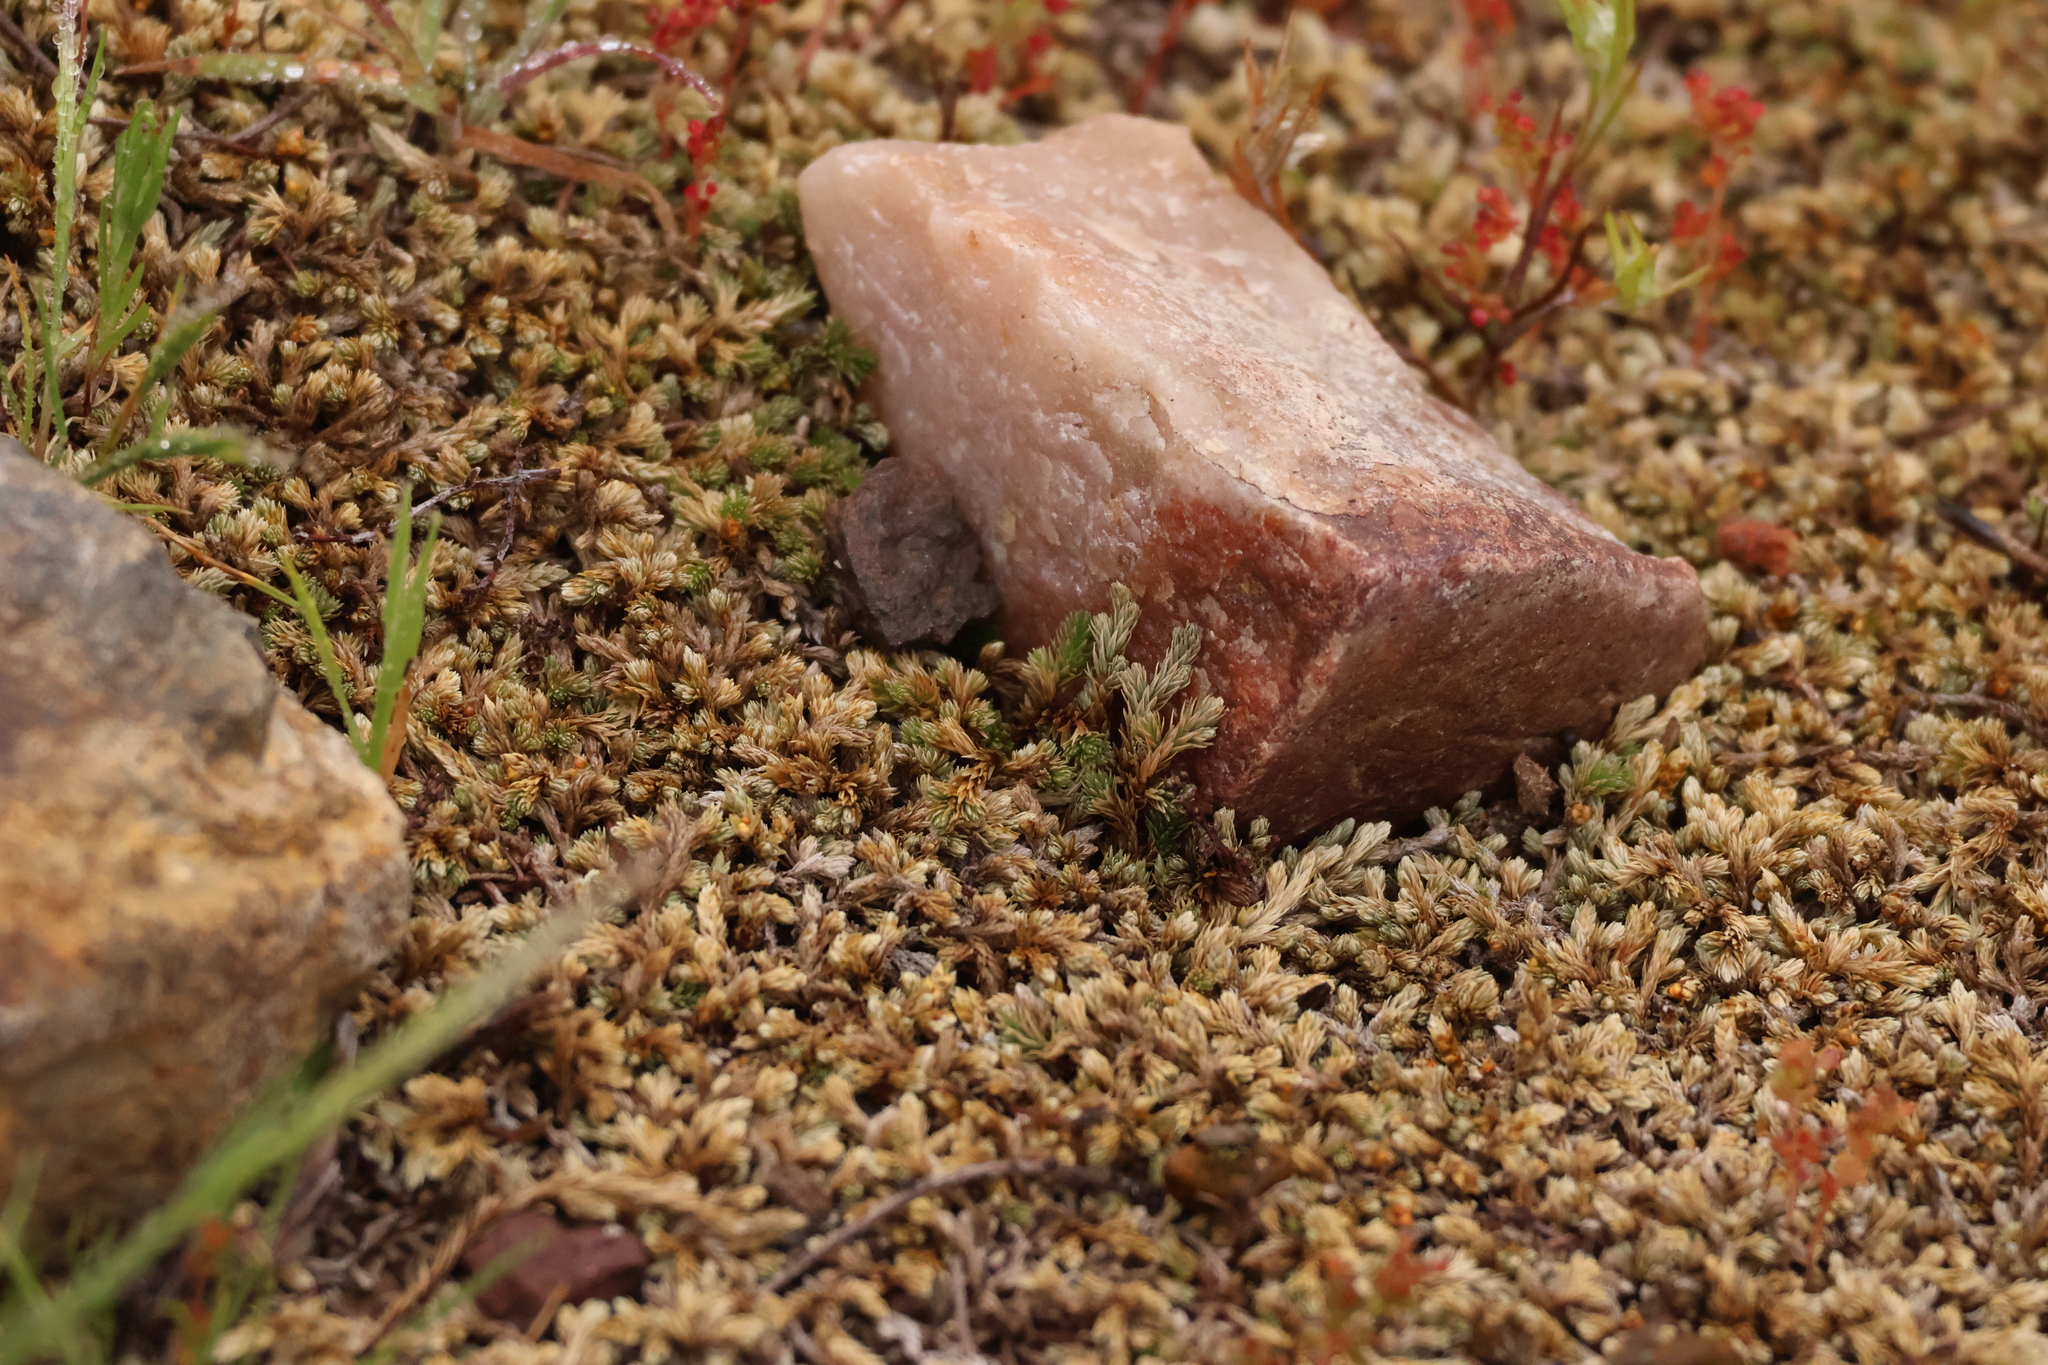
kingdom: Plantae
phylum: Tracheophyta
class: Lycopodiopsida
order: Selaginellales
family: Selaginellaceae
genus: Selaginella
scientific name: Selaginella cinerascens
